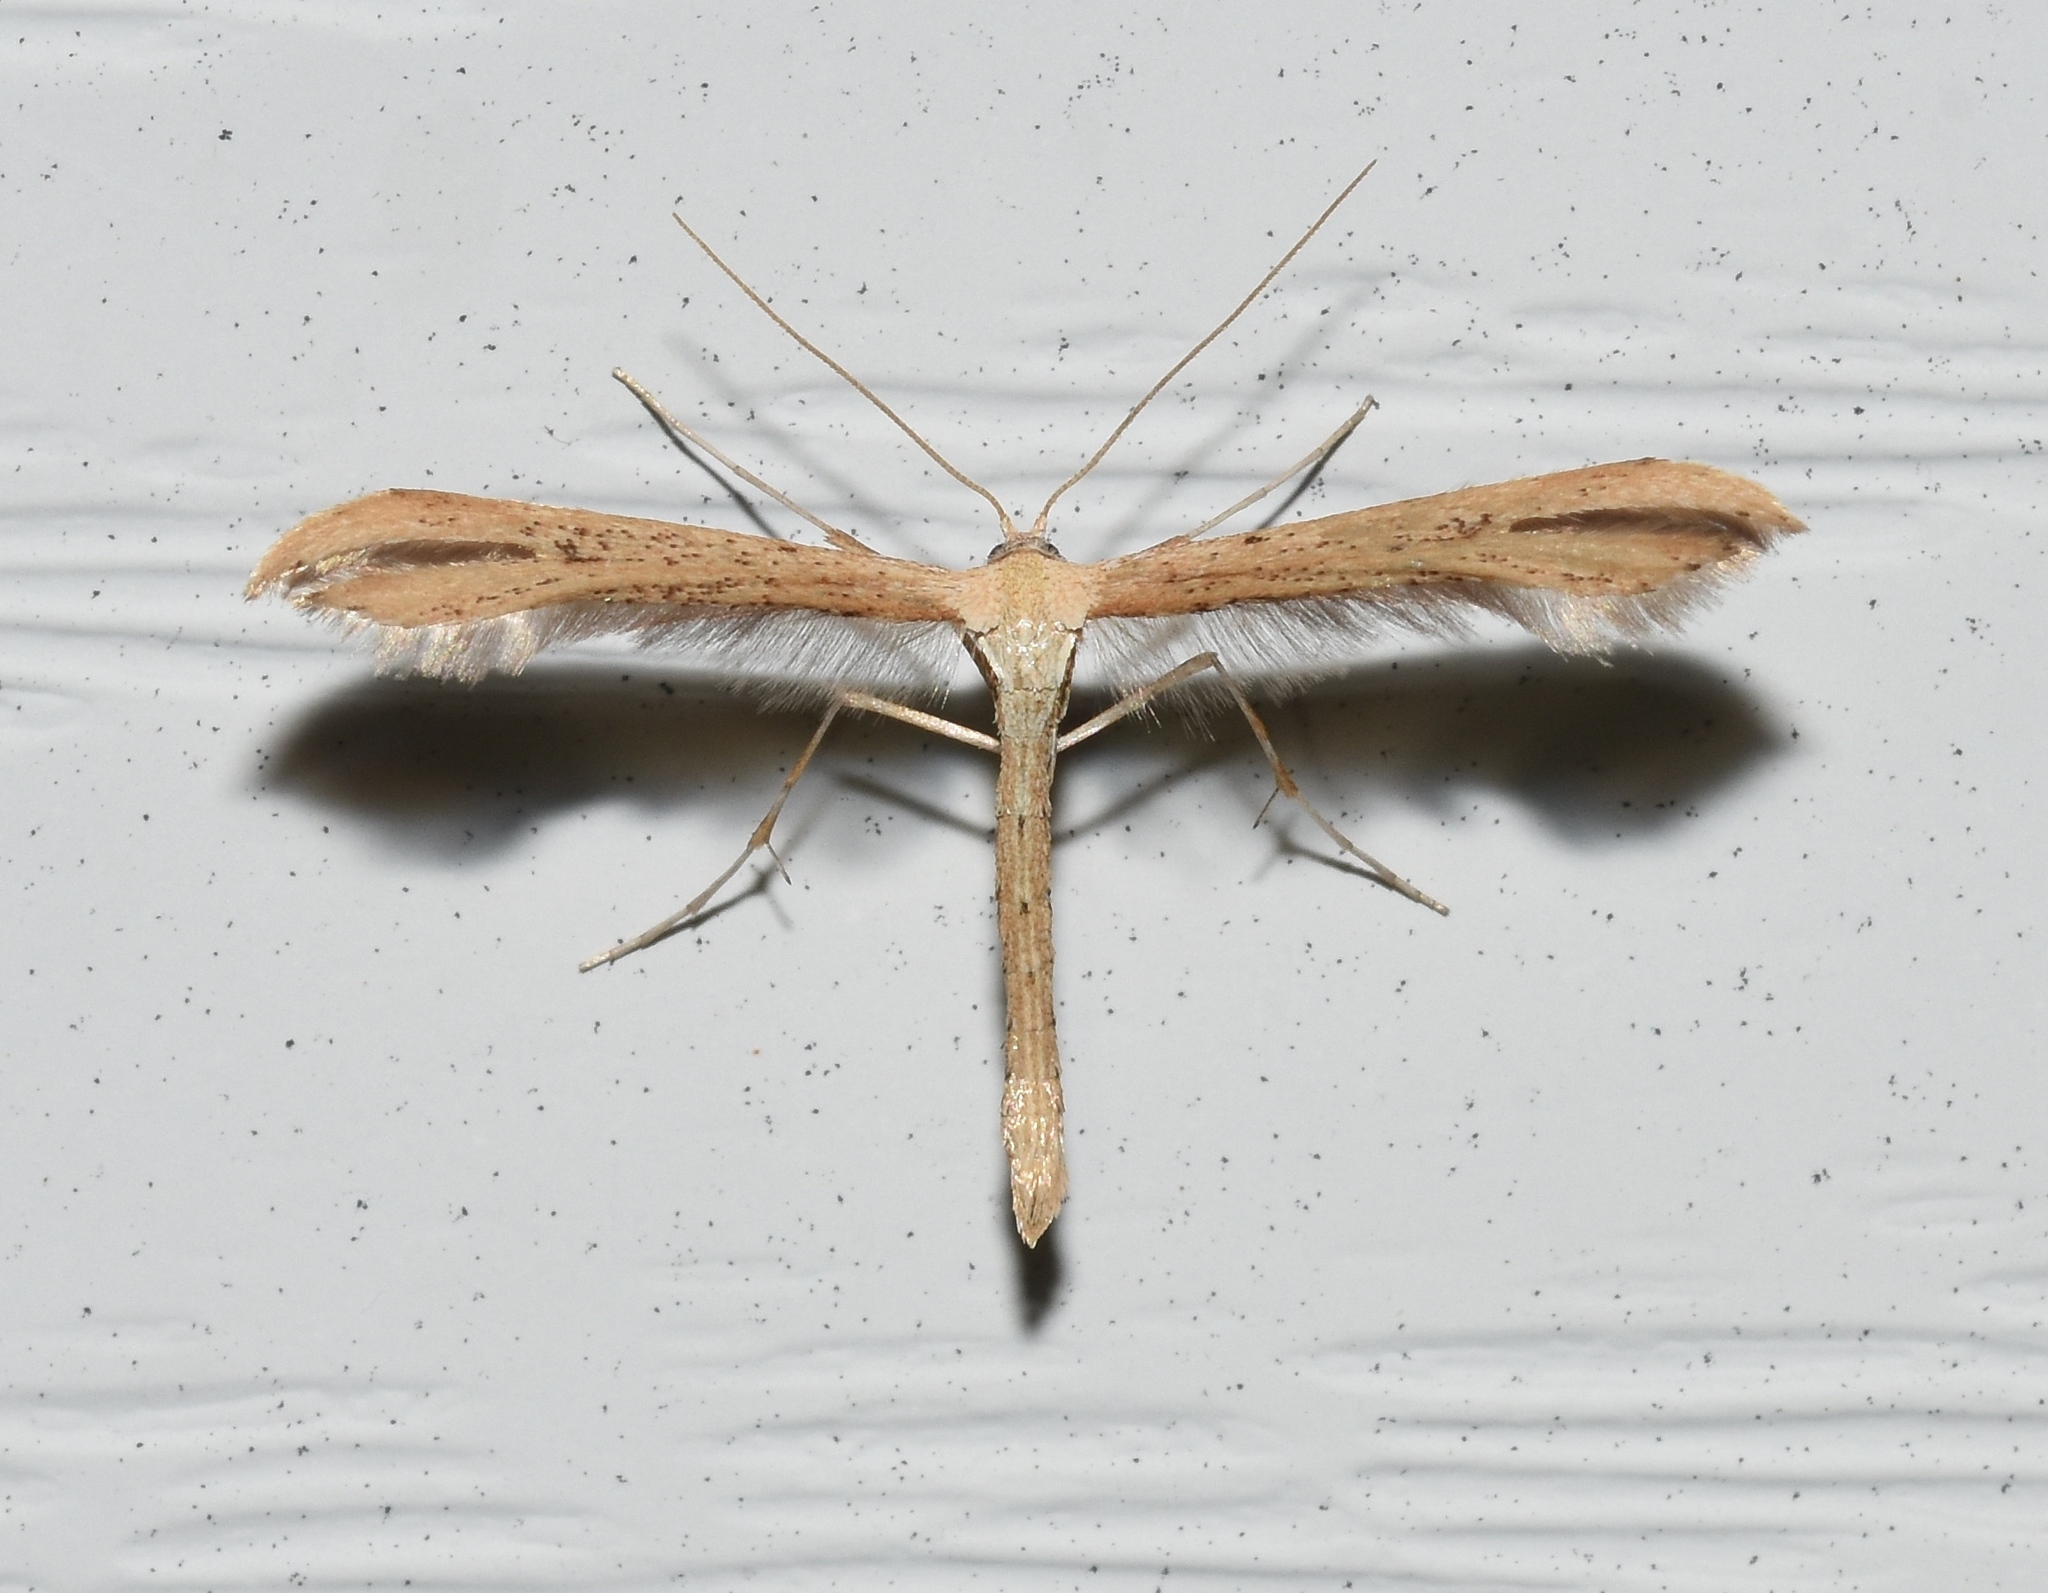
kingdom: Animalia
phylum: Arthropoda
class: Insecta
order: Lepidoptera
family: Pterophoridae
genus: Emmelina
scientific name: Emmelina monodactyla
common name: Common plume
